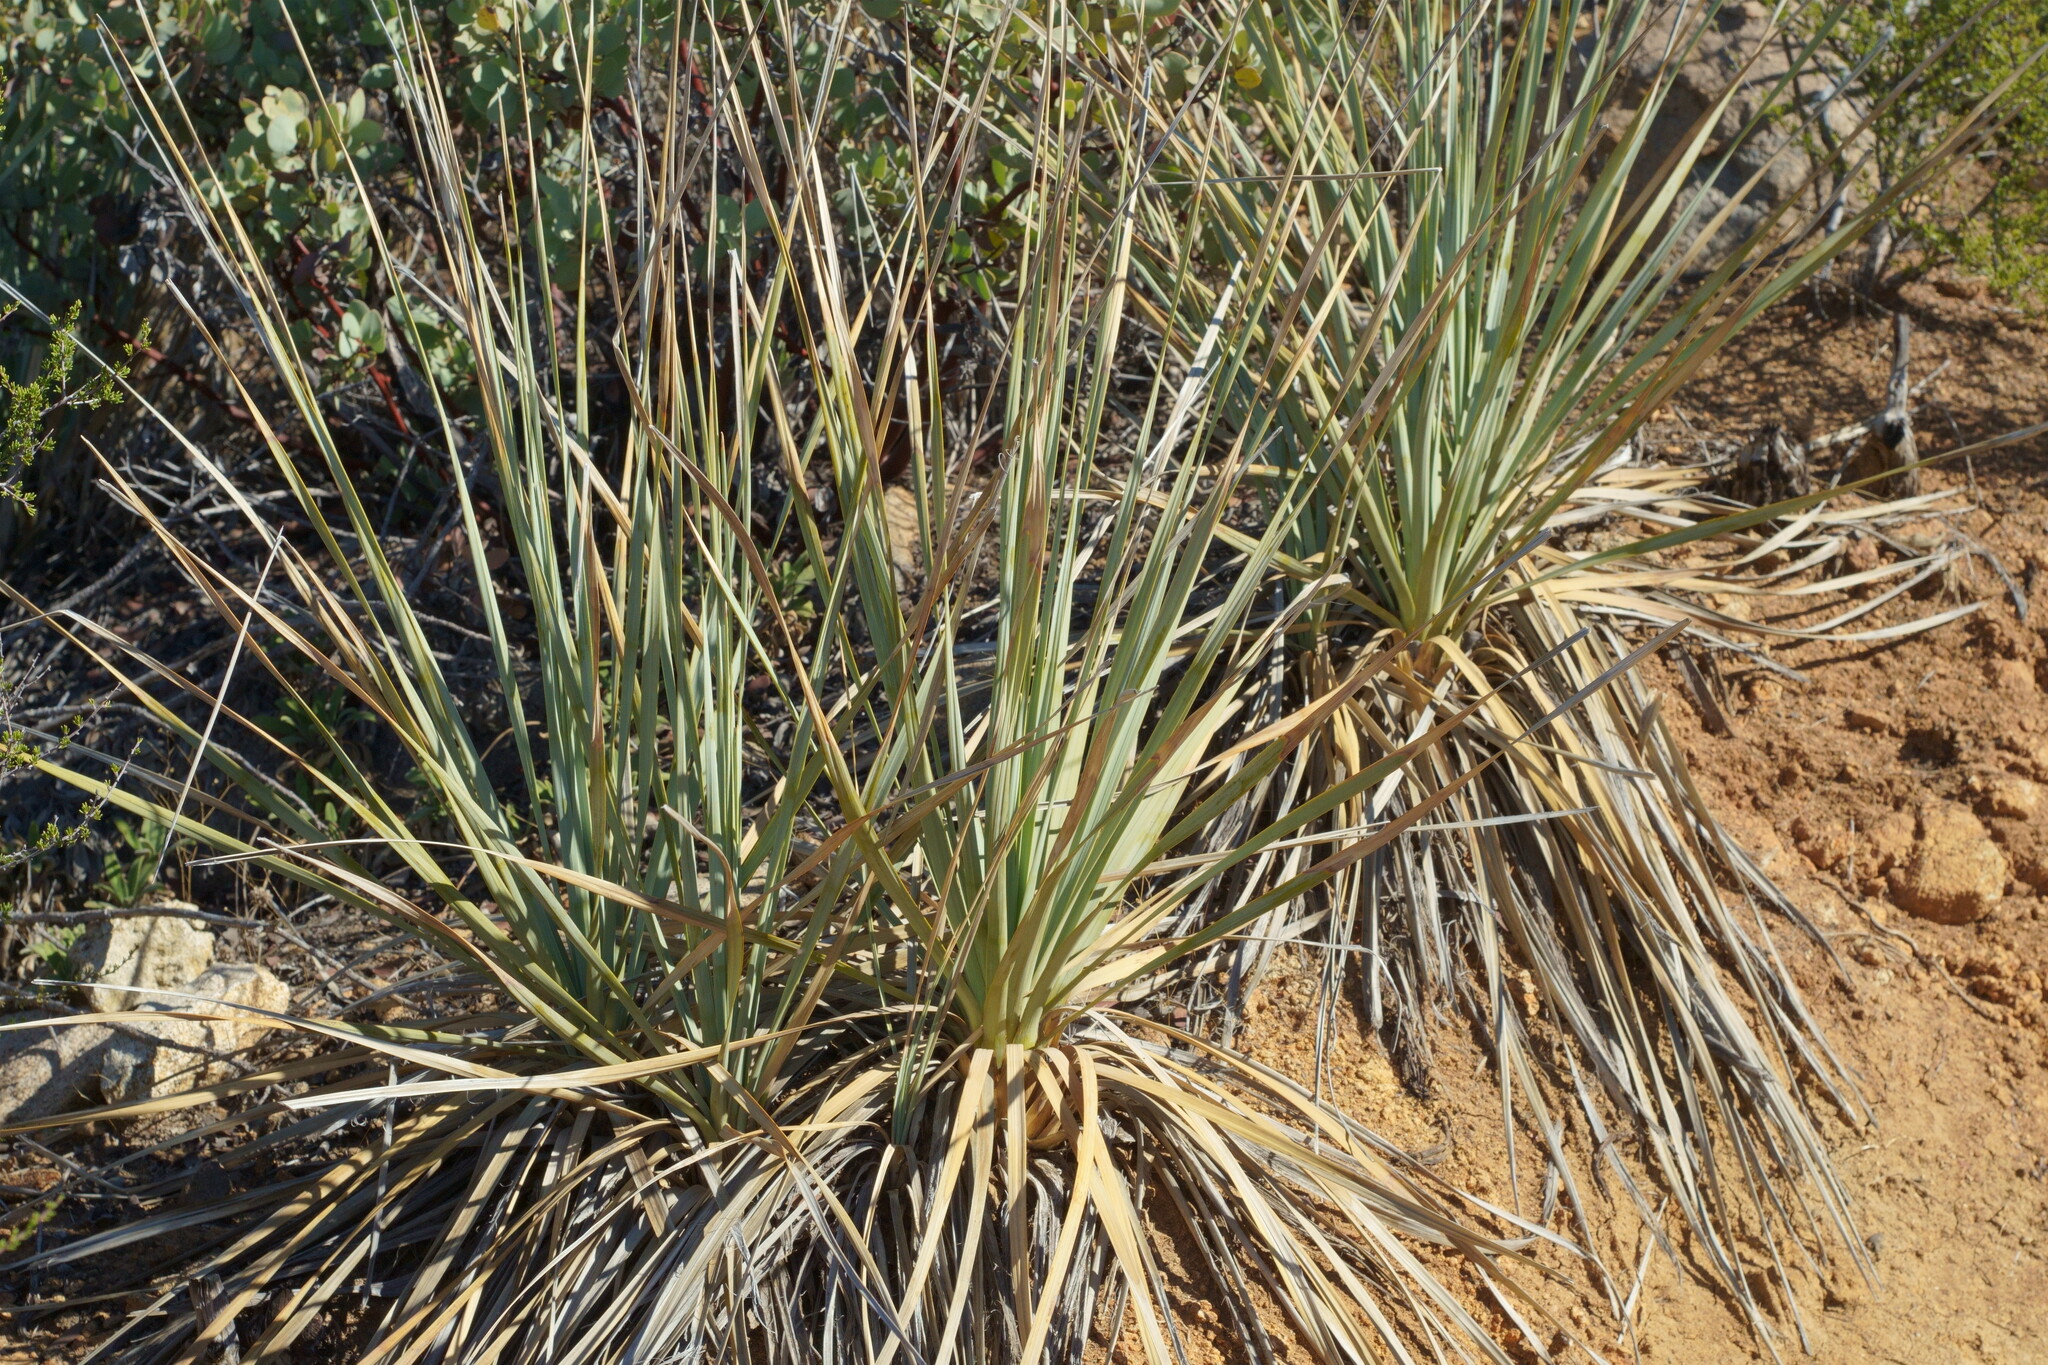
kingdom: Plantae
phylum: Tracheophyta
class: Liliopsida
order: Asparagales
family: Asparagaceae
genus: Nolina
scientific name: Nolina cismontana
